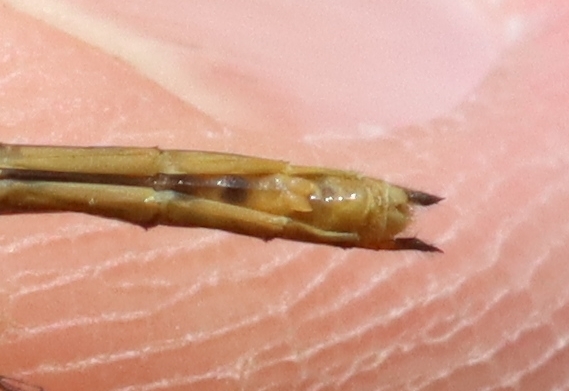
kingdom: Animalia
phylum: Arthropoda
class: Insecta
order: Odonata
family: Libellulidae
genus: Sympetrum
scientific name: Sympetrum rubicundulum
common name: Ruby meadowhawk
